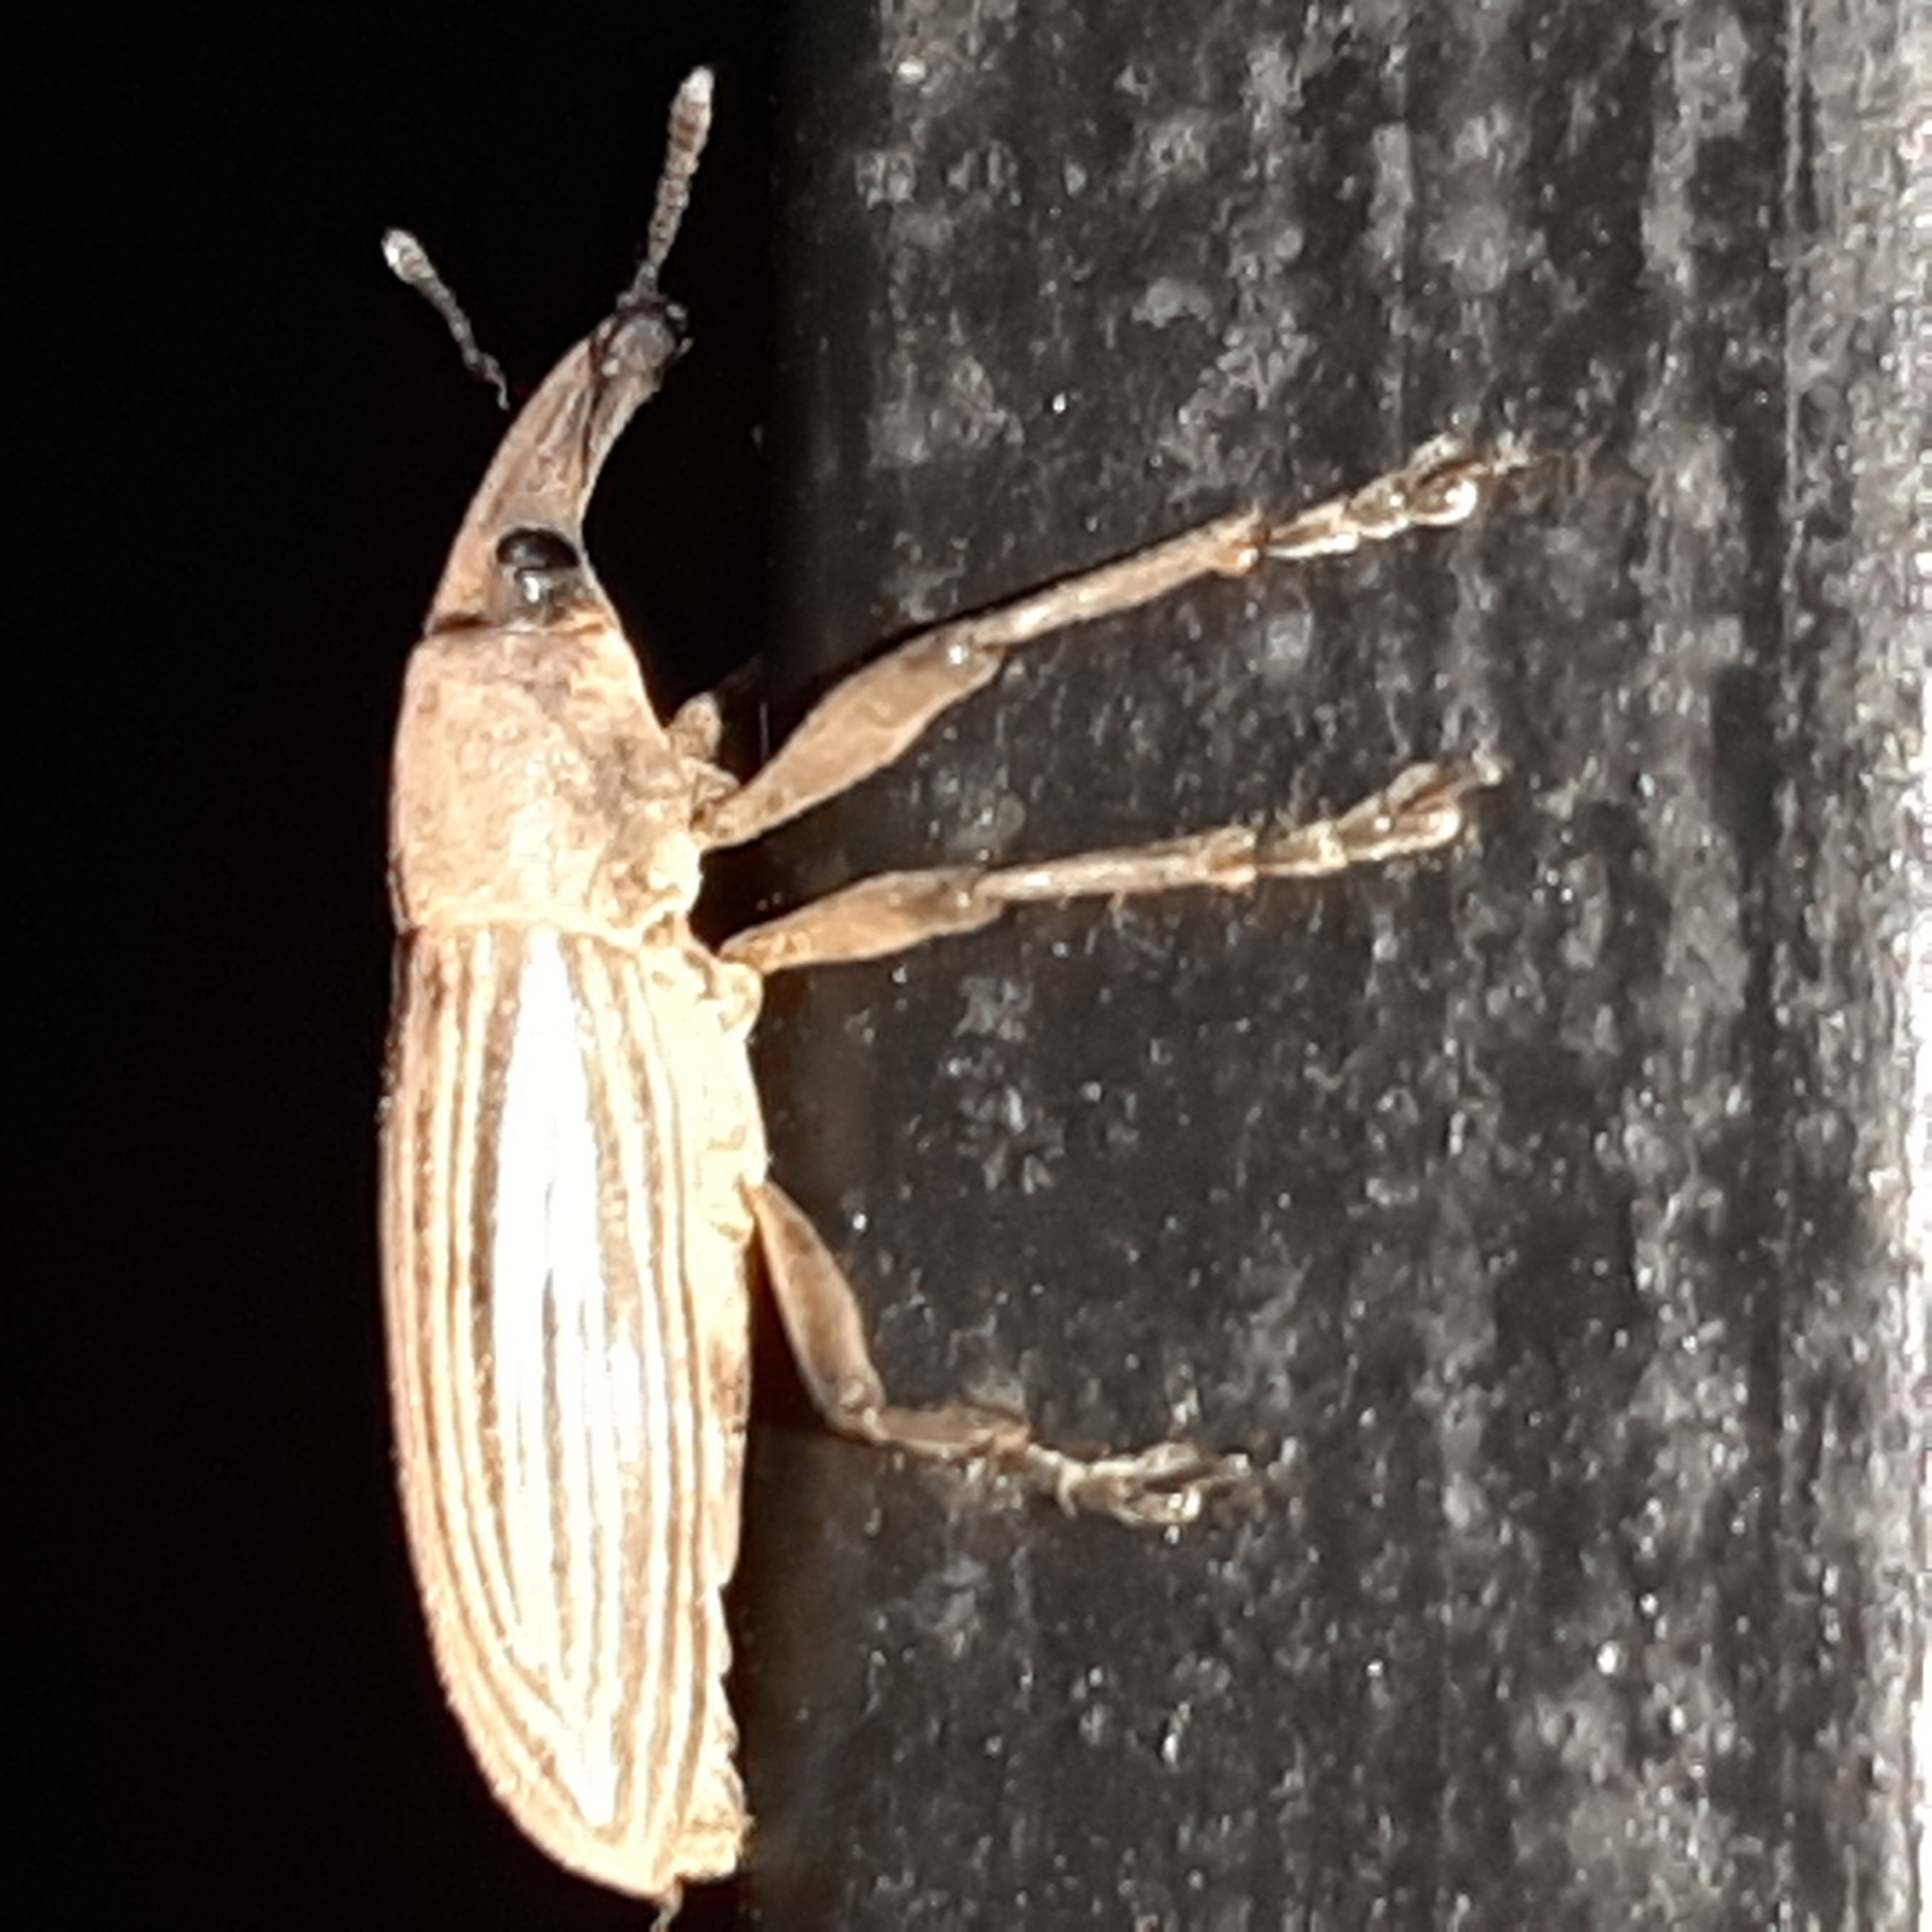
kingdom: Animalia
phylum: Arthropoda
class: Insecta
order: Coleoptera
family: Curculionidae
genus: Lixus
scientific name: Lixus apterus
